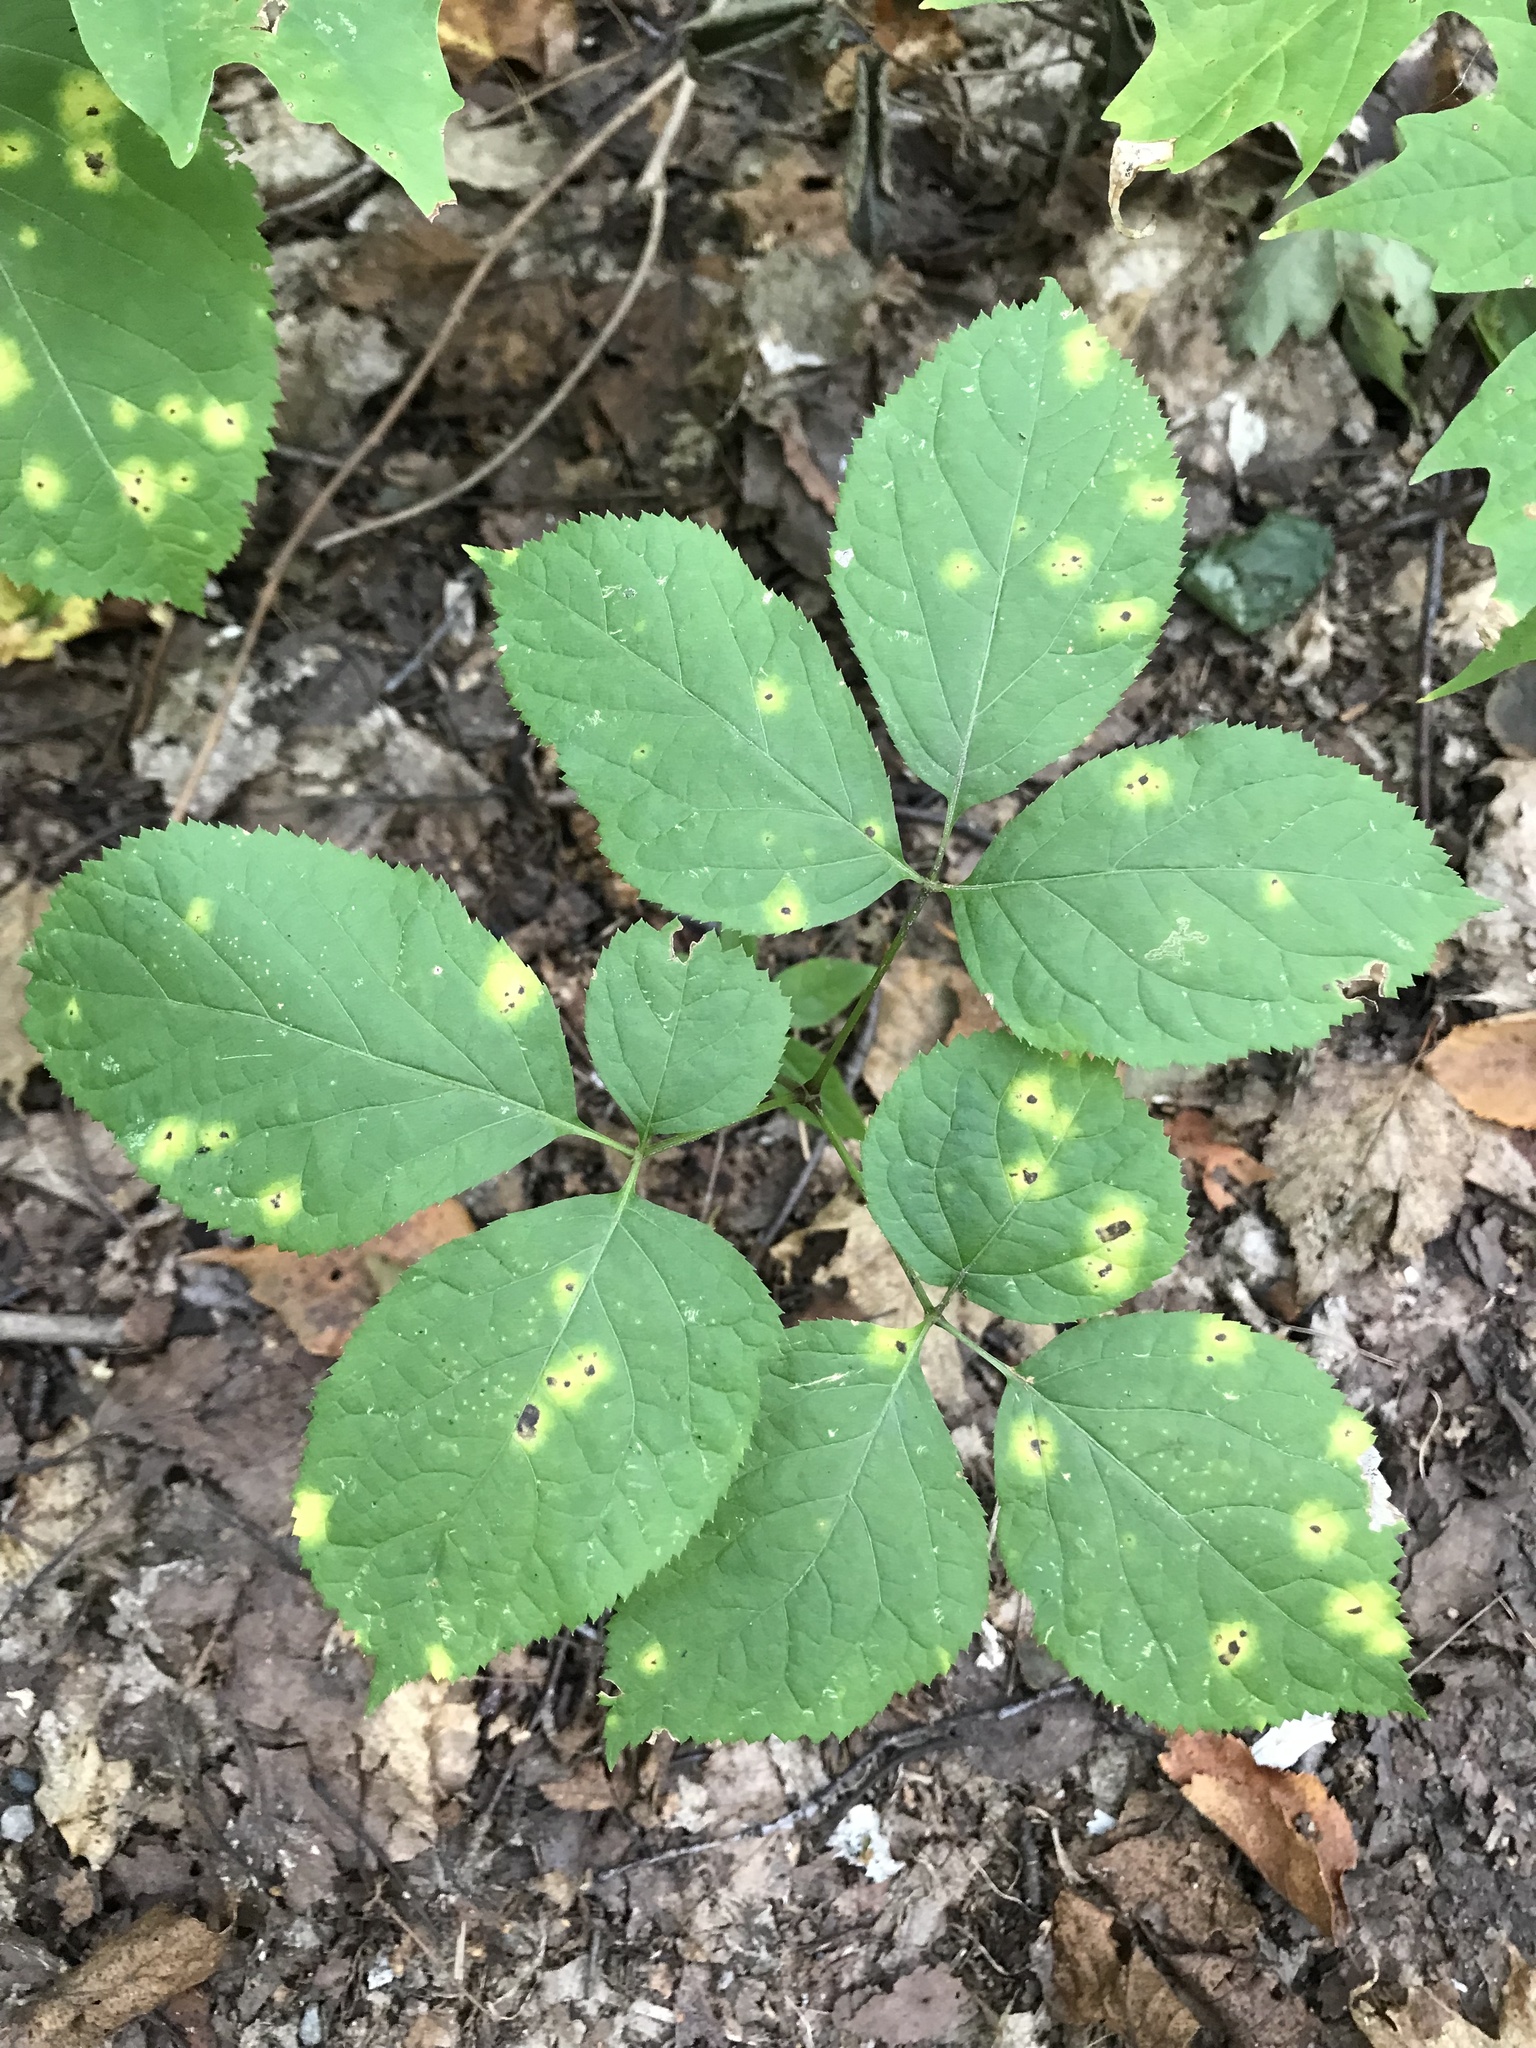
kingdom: Plantae
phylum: Tracheophyta
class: Magnoliopsida
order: Apiales
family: Araliaceae
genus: Aralia
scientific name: Aralia nudicaulis
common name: Wild sarsaparilla
